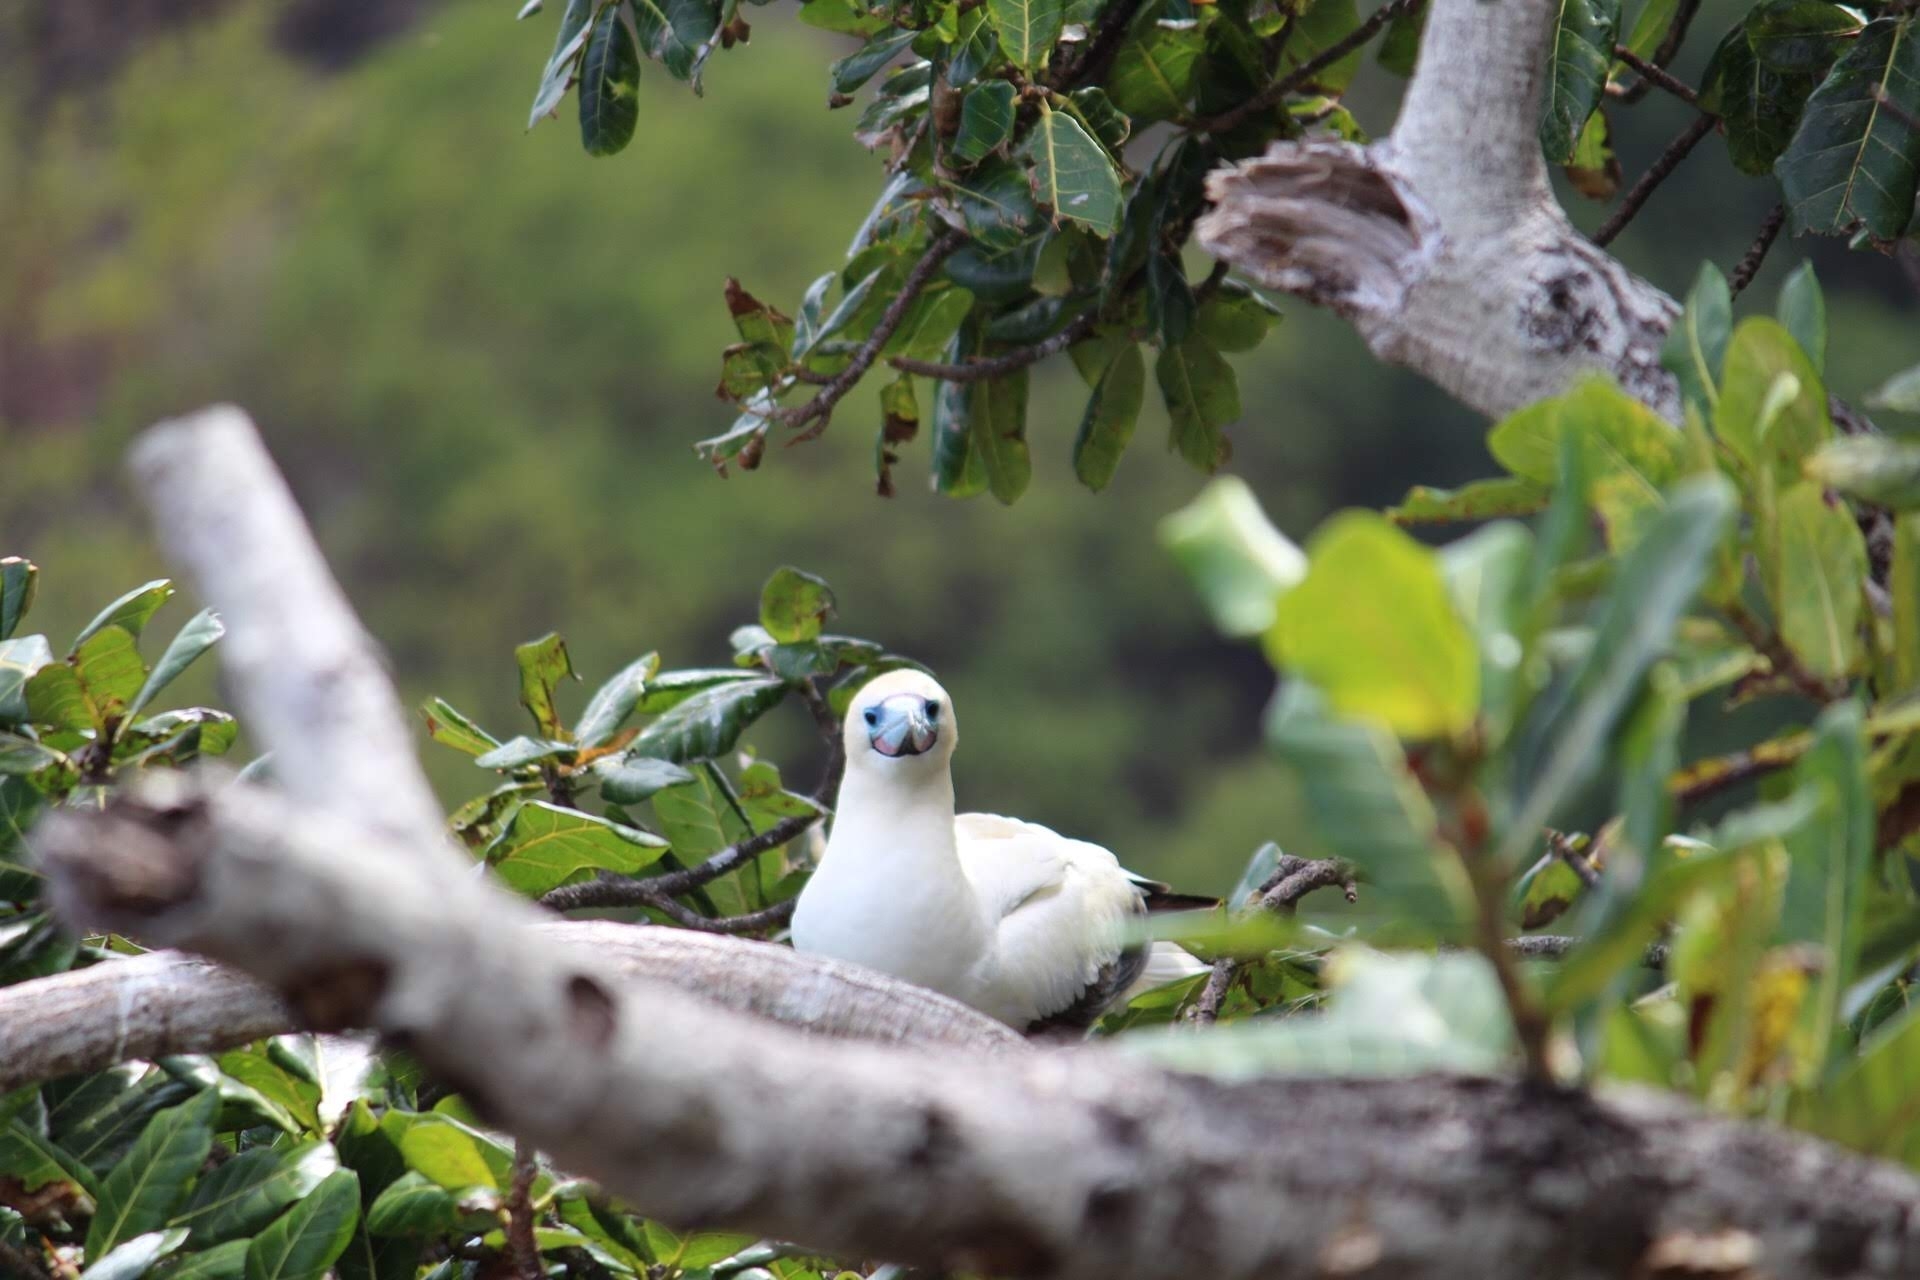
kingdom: Animalia
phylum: Chordata
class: Aves
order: Suliformes
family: Sulidae
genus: Sula
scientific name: Sula sula
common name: Red-footed booby
